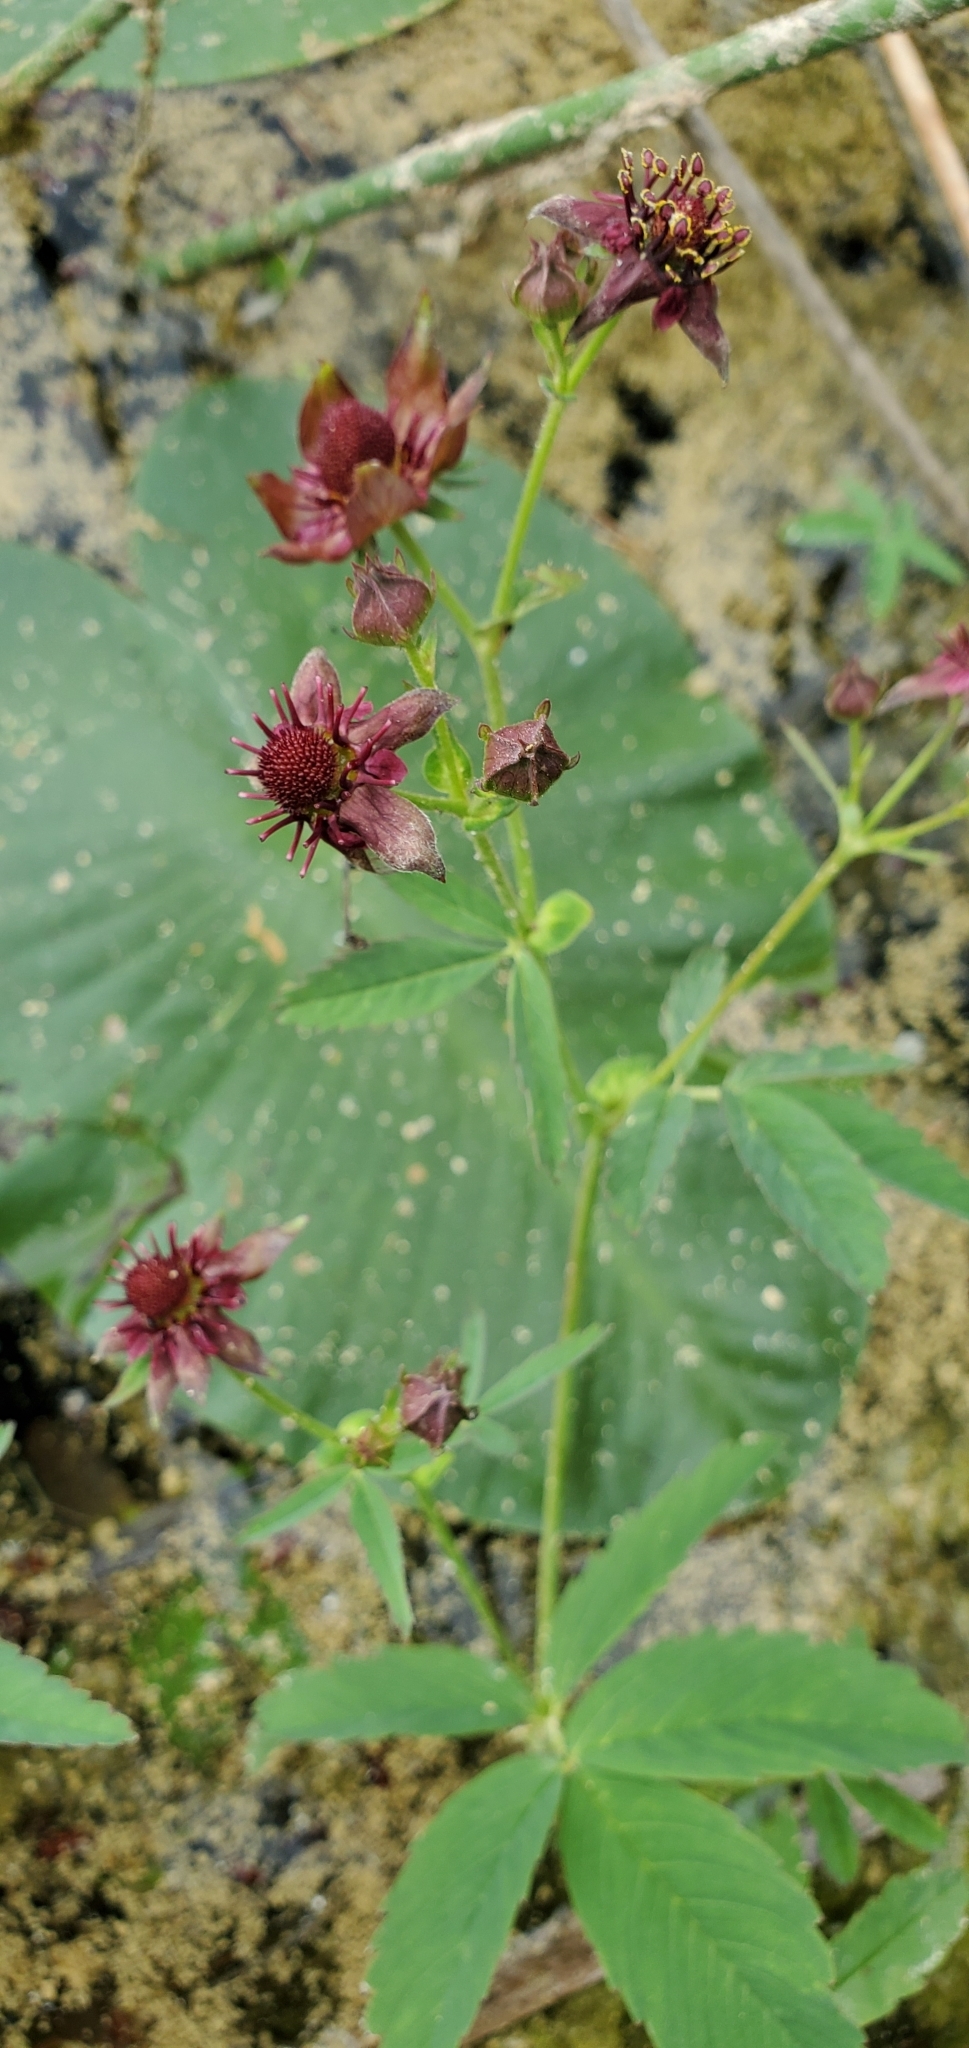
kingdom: Plantae
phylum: Tracheophyta
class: Magnoliopsida
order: Rosales
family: Rosaceae
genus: Comarum
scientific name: Comarum palustre
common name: Marsh cinquefoil
